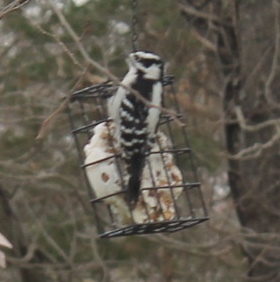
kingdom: Animalia
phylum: Chordata
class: Aves
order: Piciformes
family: Picidae
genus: Dryobates
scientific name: Dryobates pubescens
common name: Downy woodpecker
